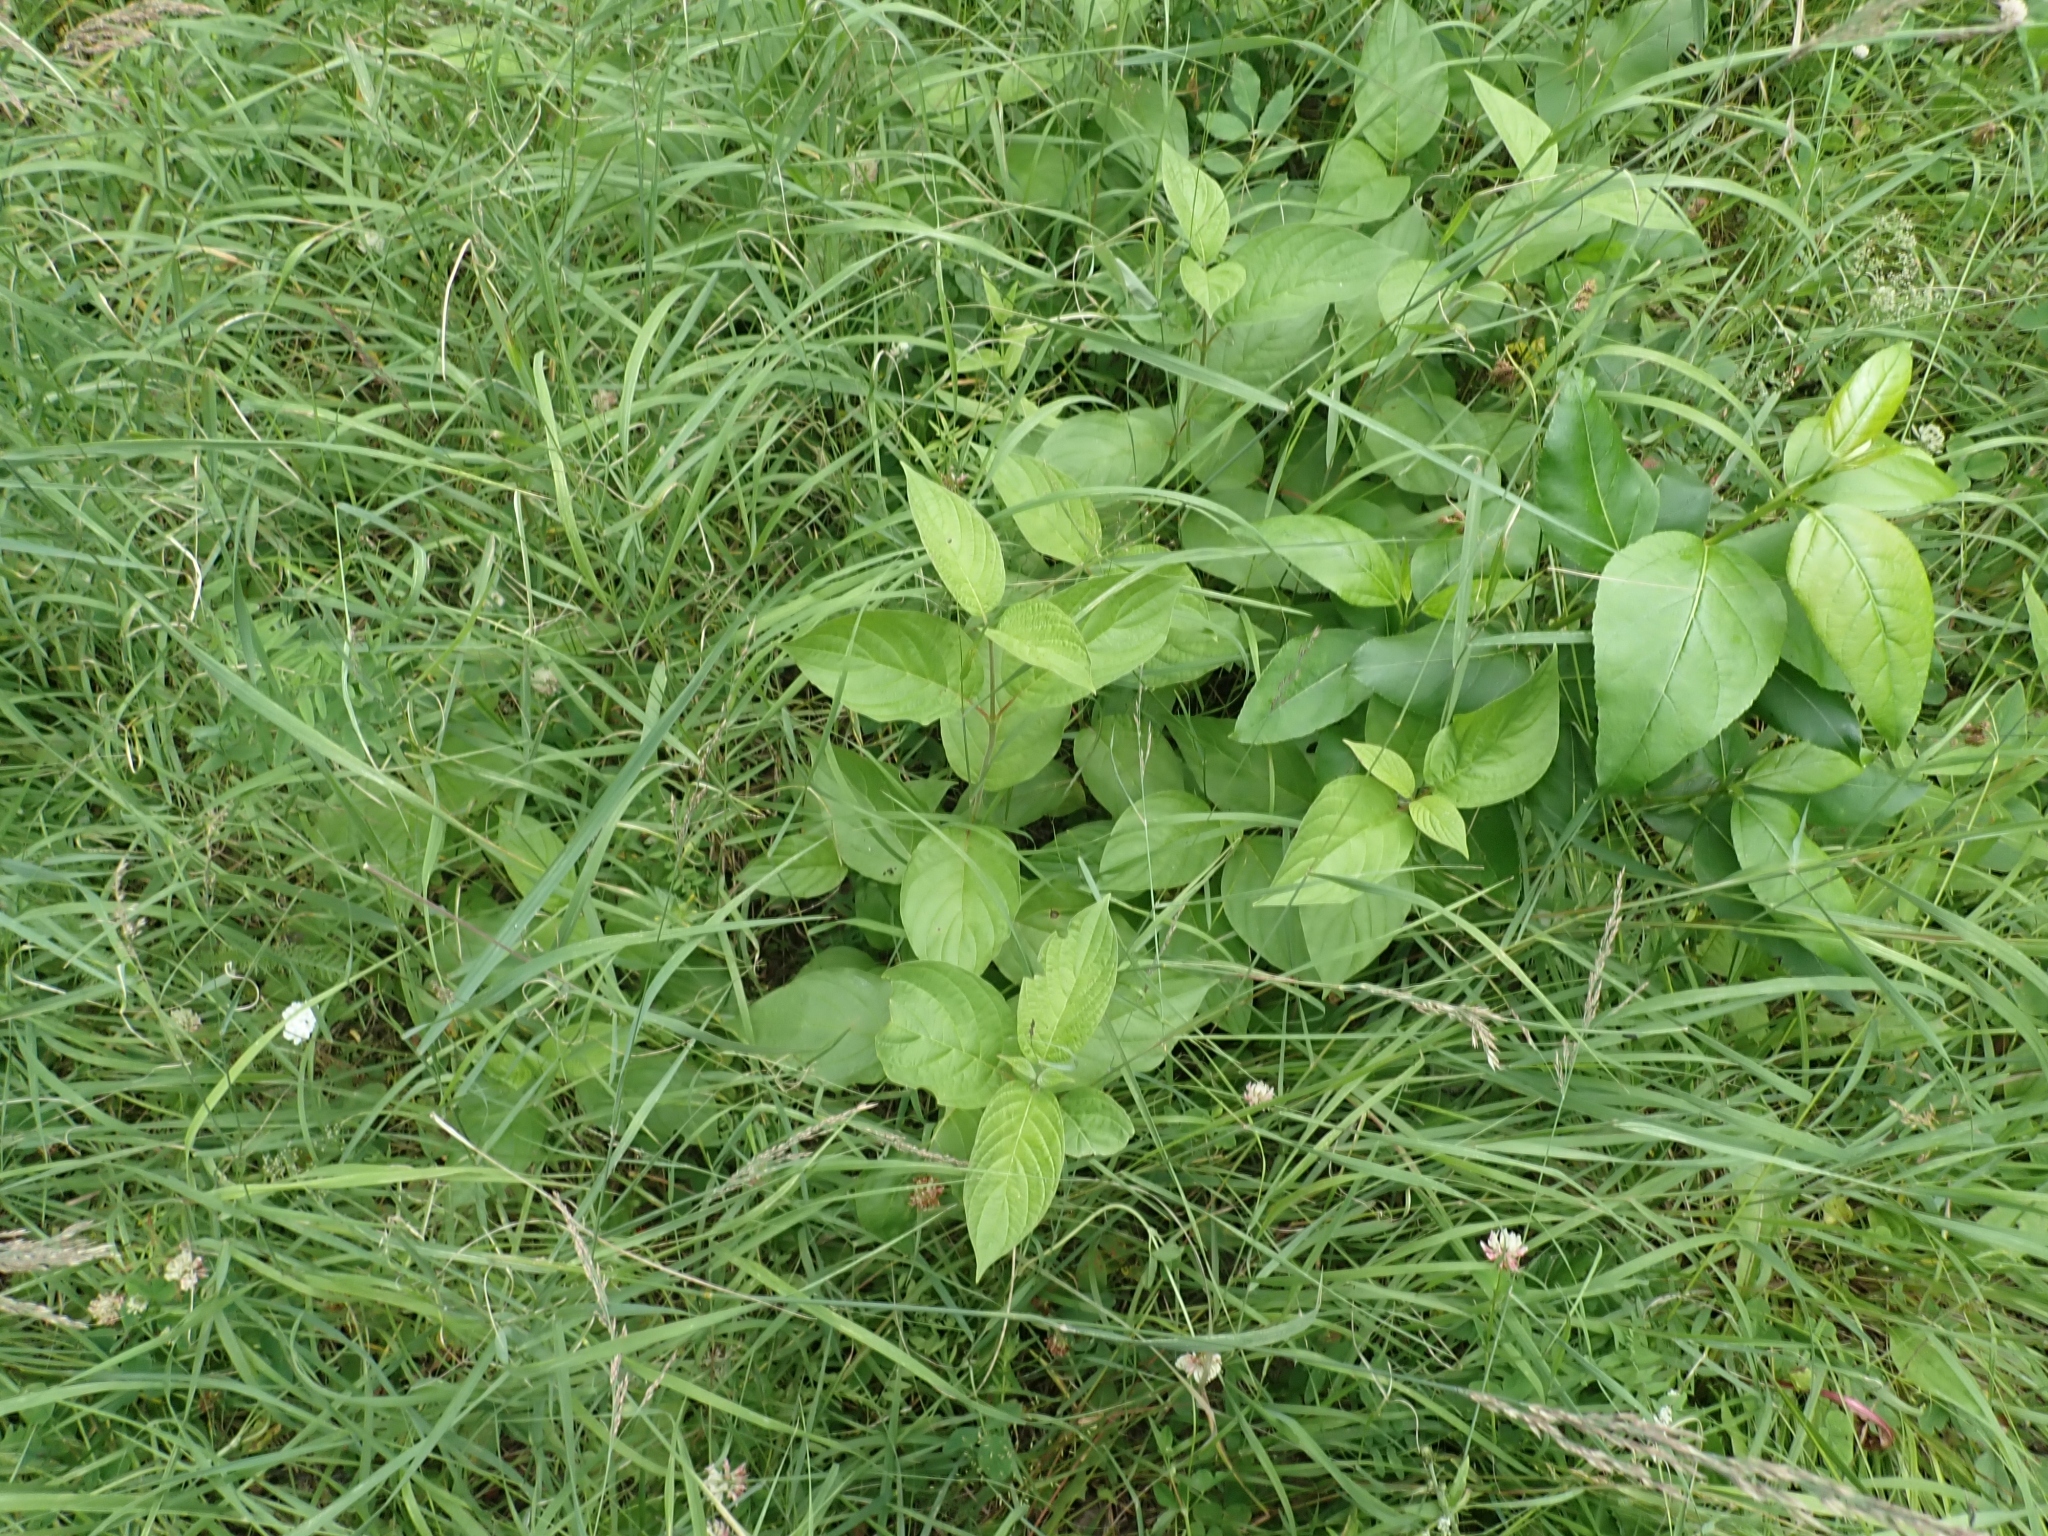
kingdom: Plantae
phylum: Tracheophyta
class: Magnoliopsida
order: Cornales
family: Cornaceae
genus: Cornus
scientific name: Cornus sericea
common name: Red-osier dogwood
